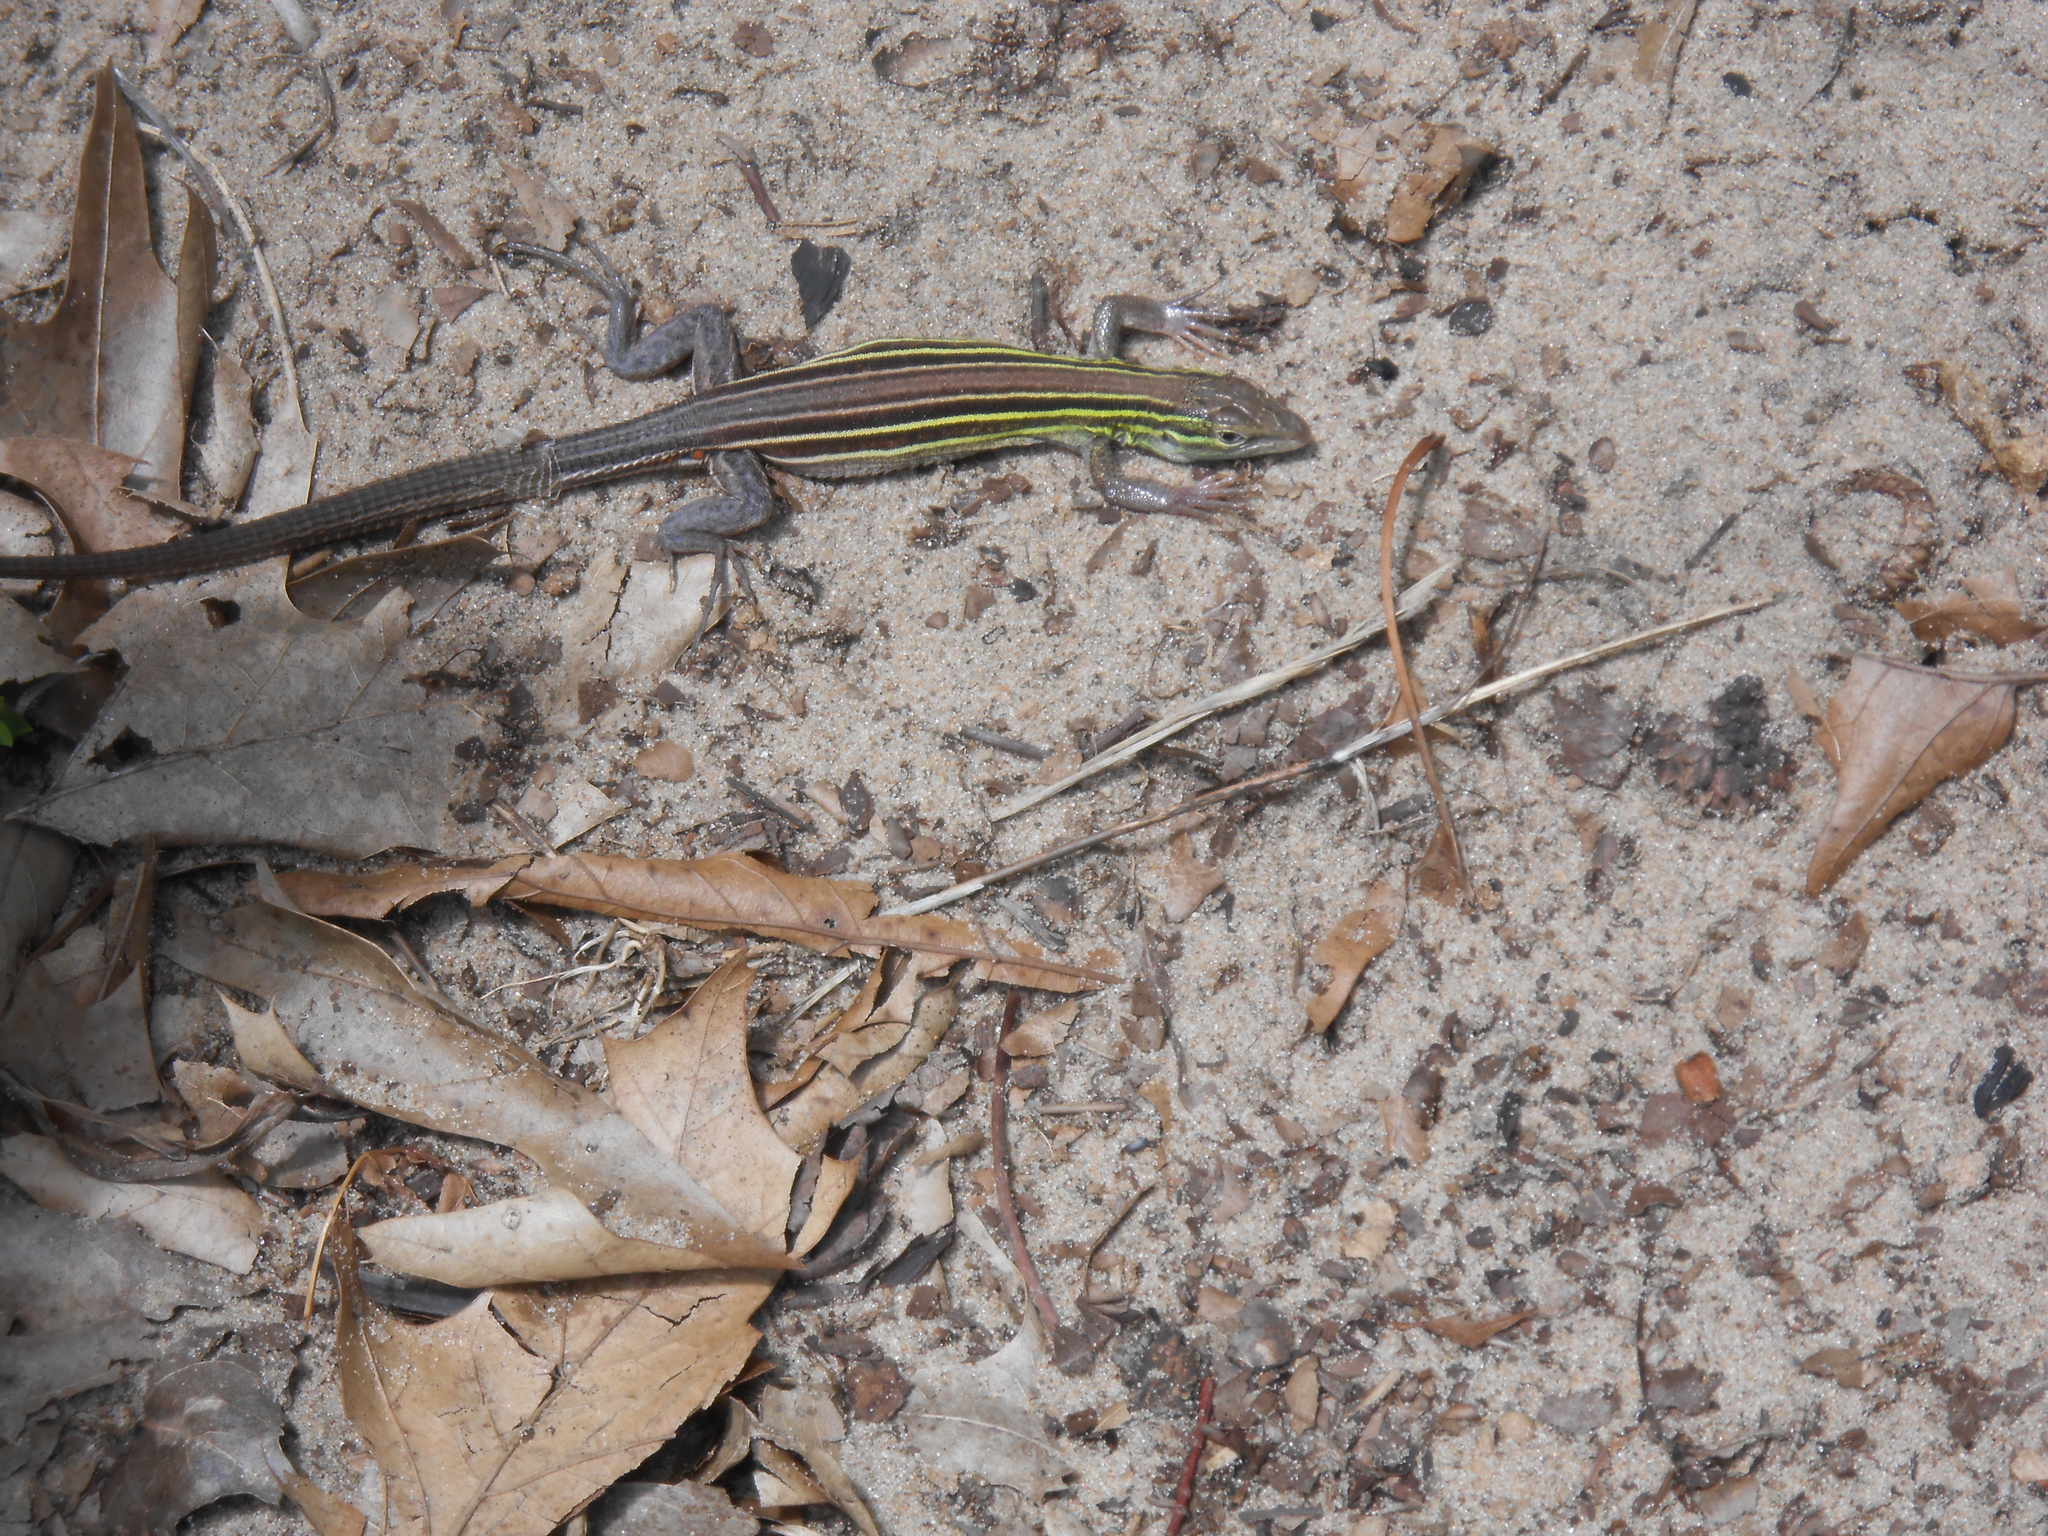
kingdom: Animalia
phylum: Chordata
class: Squamata
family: Teiidae
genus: Aspidoscelis
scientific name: Aspidoscelis sexlineatus
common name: Six-lined racerunner
